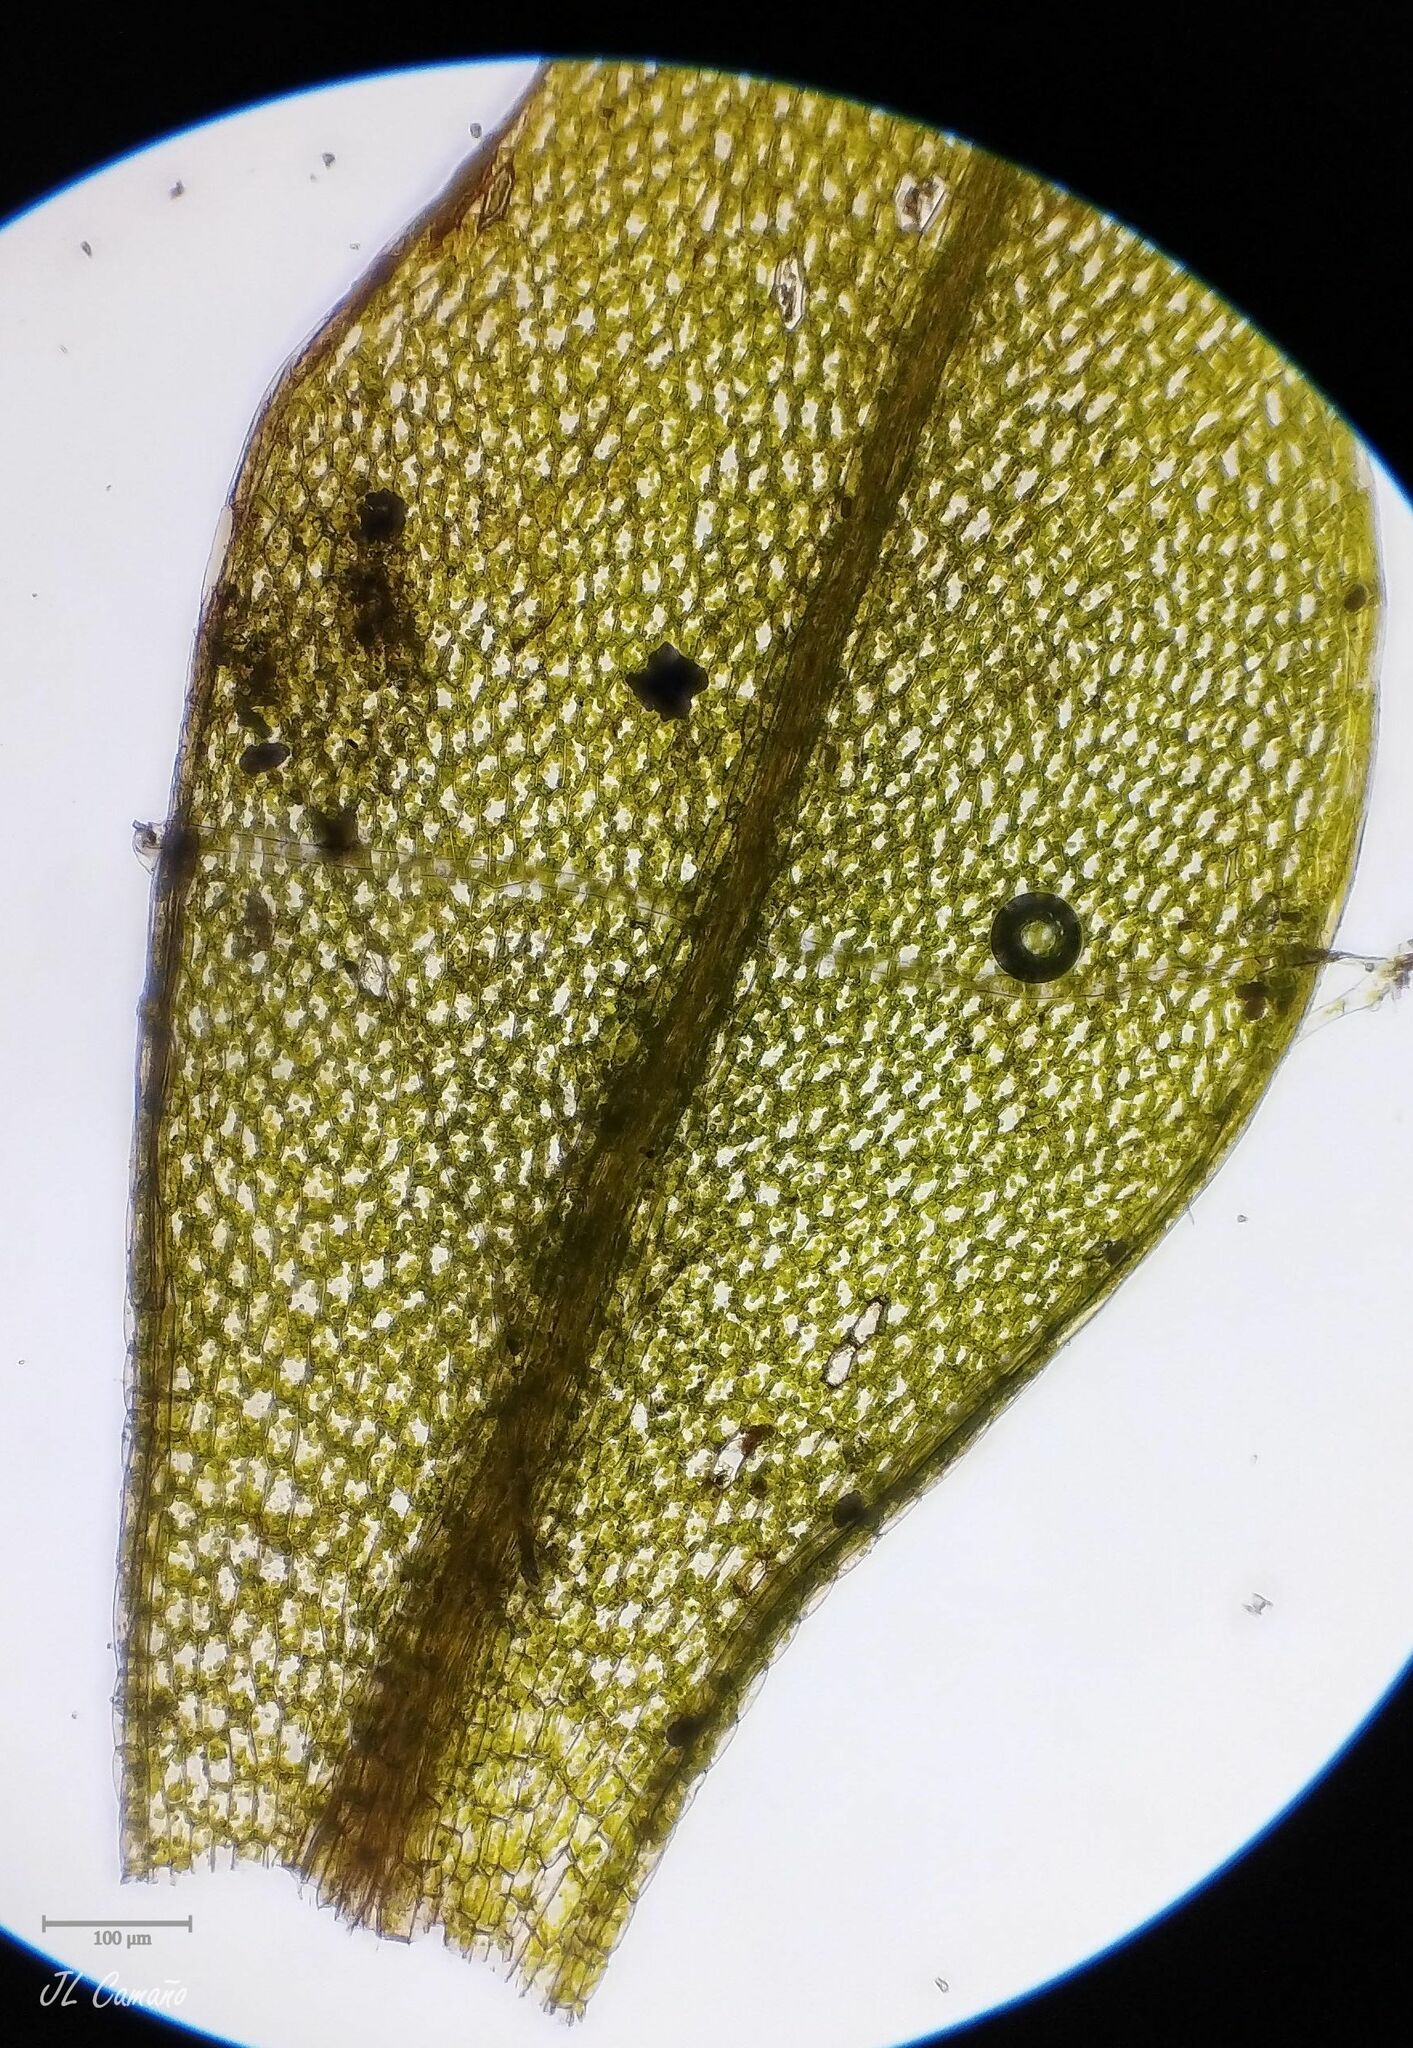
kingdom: Plantae
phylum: Bryophyta
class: Bryopsida
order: Bryales
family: Bryaceae
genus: Rosulabryum
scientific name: Rosulabryum capillare
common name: Capillary thread-moss
